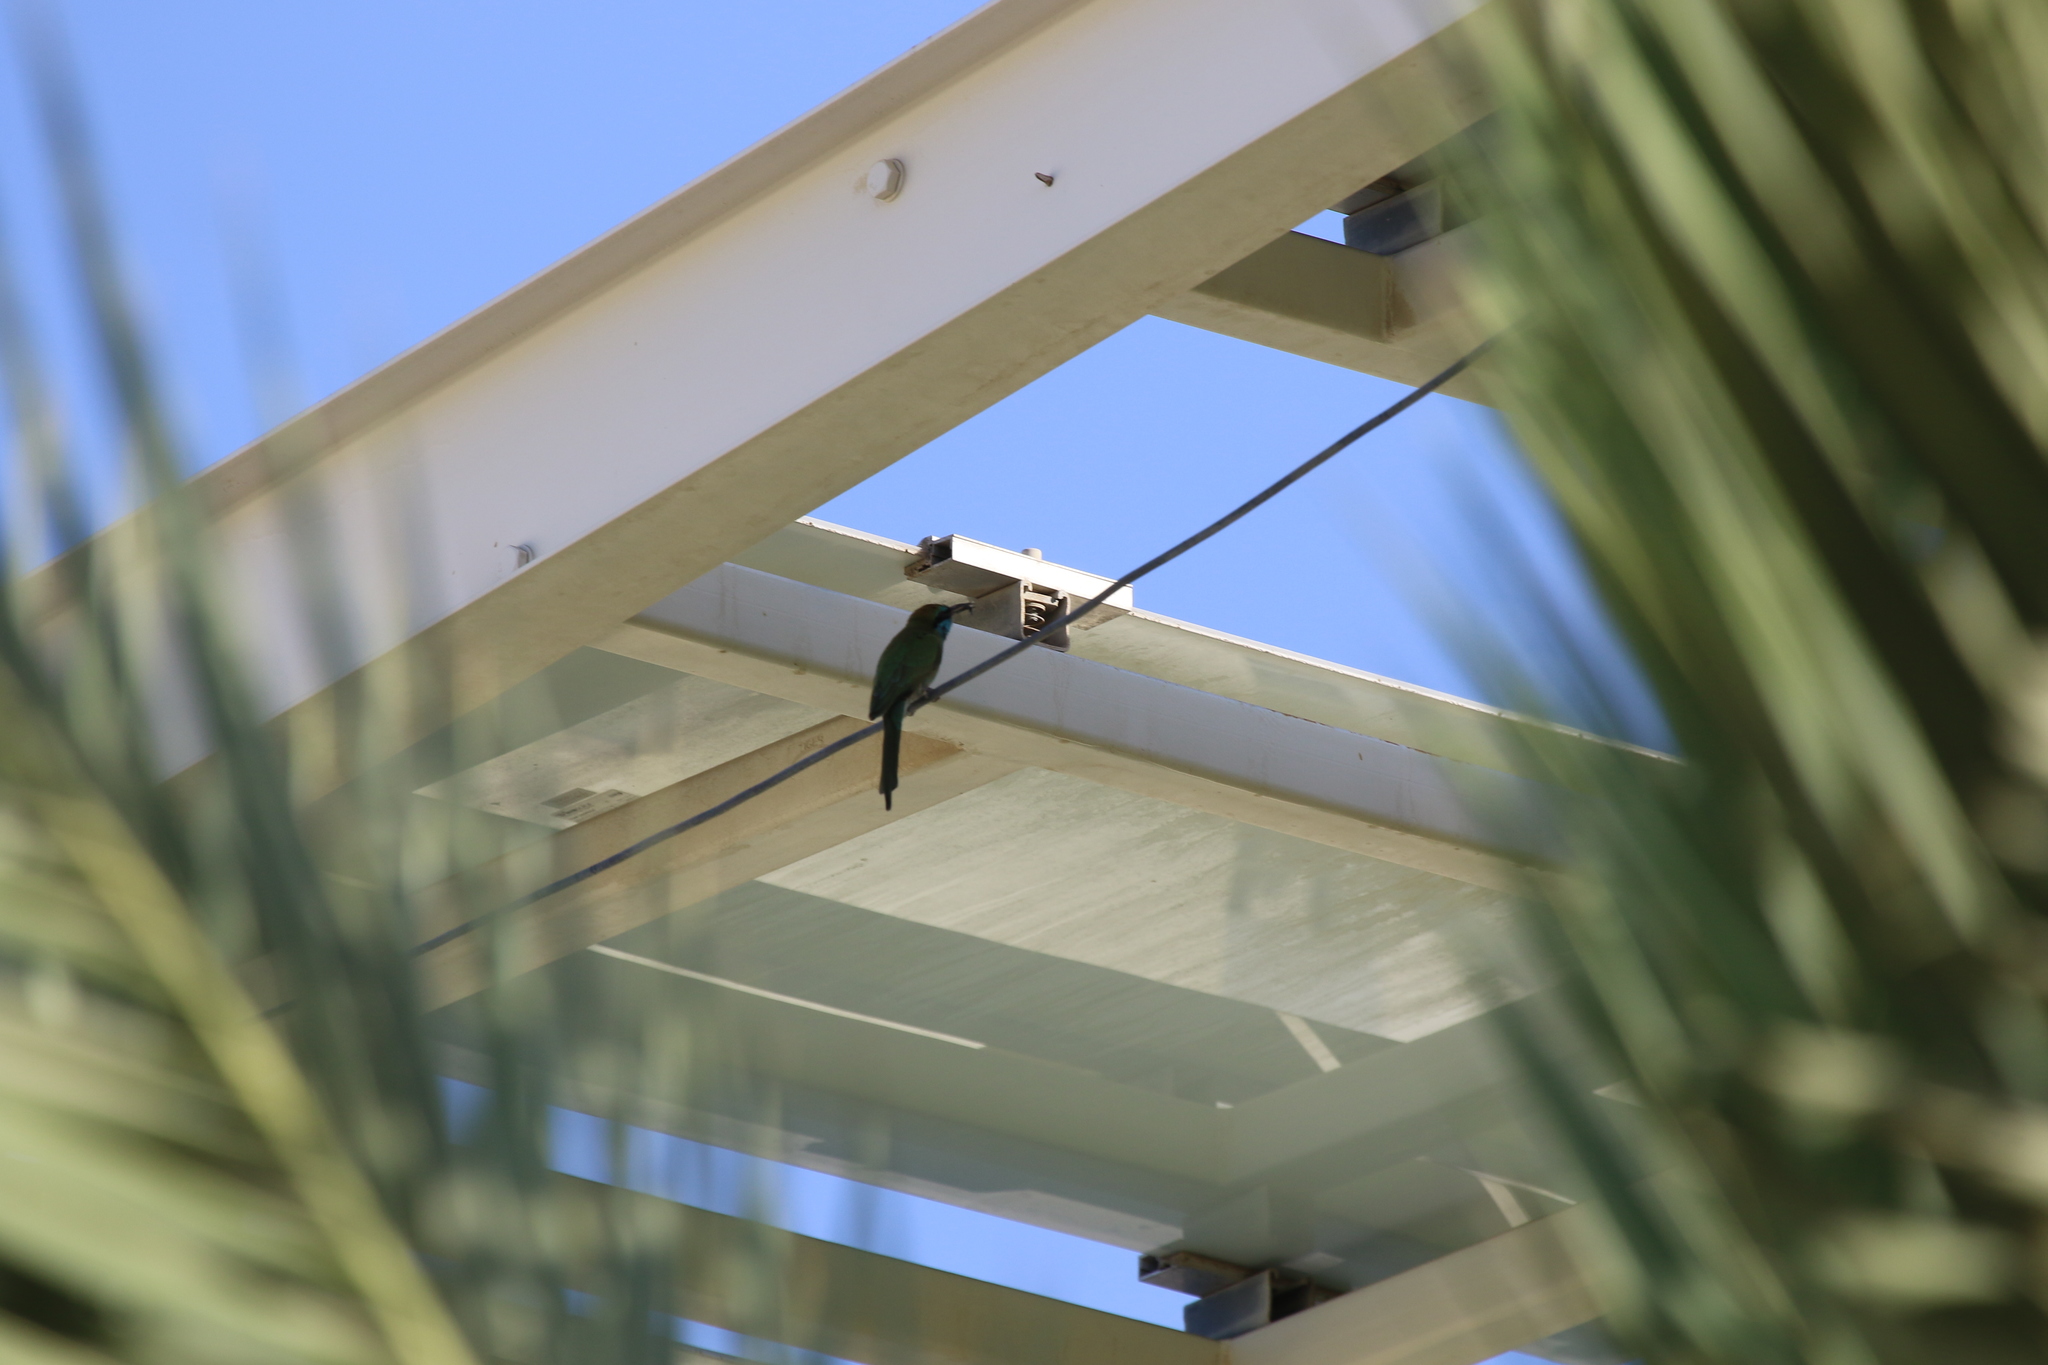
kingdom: Animalia
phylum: Chordata
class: Aves
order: Coraciiformes
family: Meropidae
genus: Merops
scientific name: Merops cyanophrys
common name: Arabian green bee-eater
